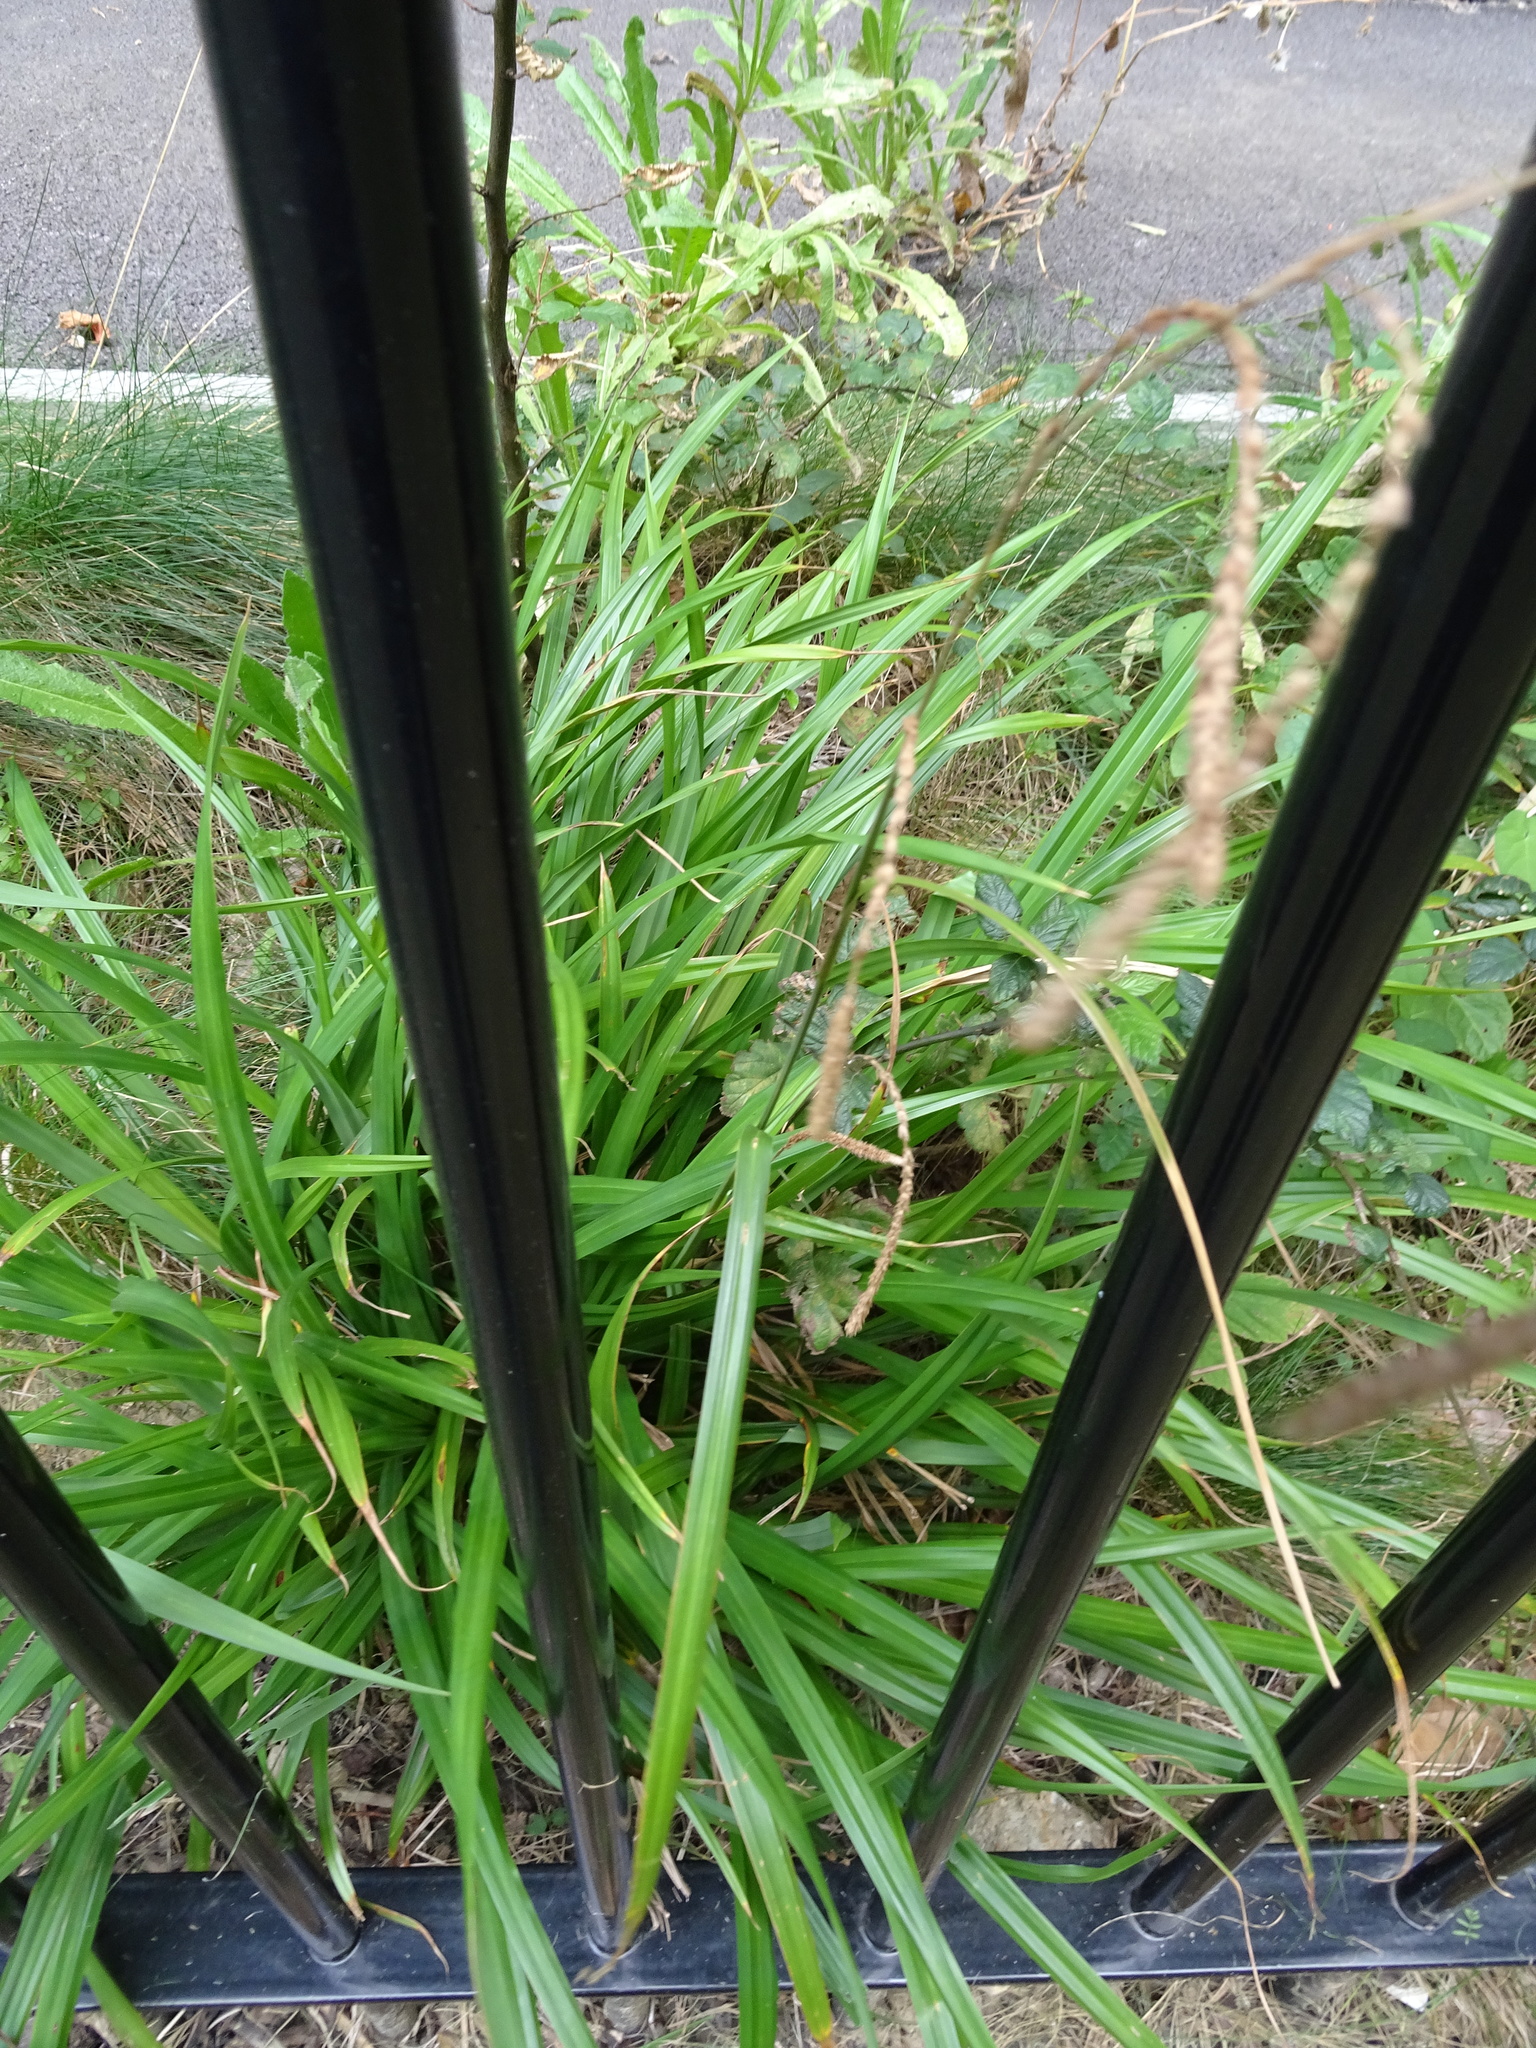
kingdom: Plantae
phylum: Tracheophyta
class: Liliopsida
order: Poales
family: Cyperaceae
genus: Carex
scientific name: Carex pendula
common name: Pendulous sedge
